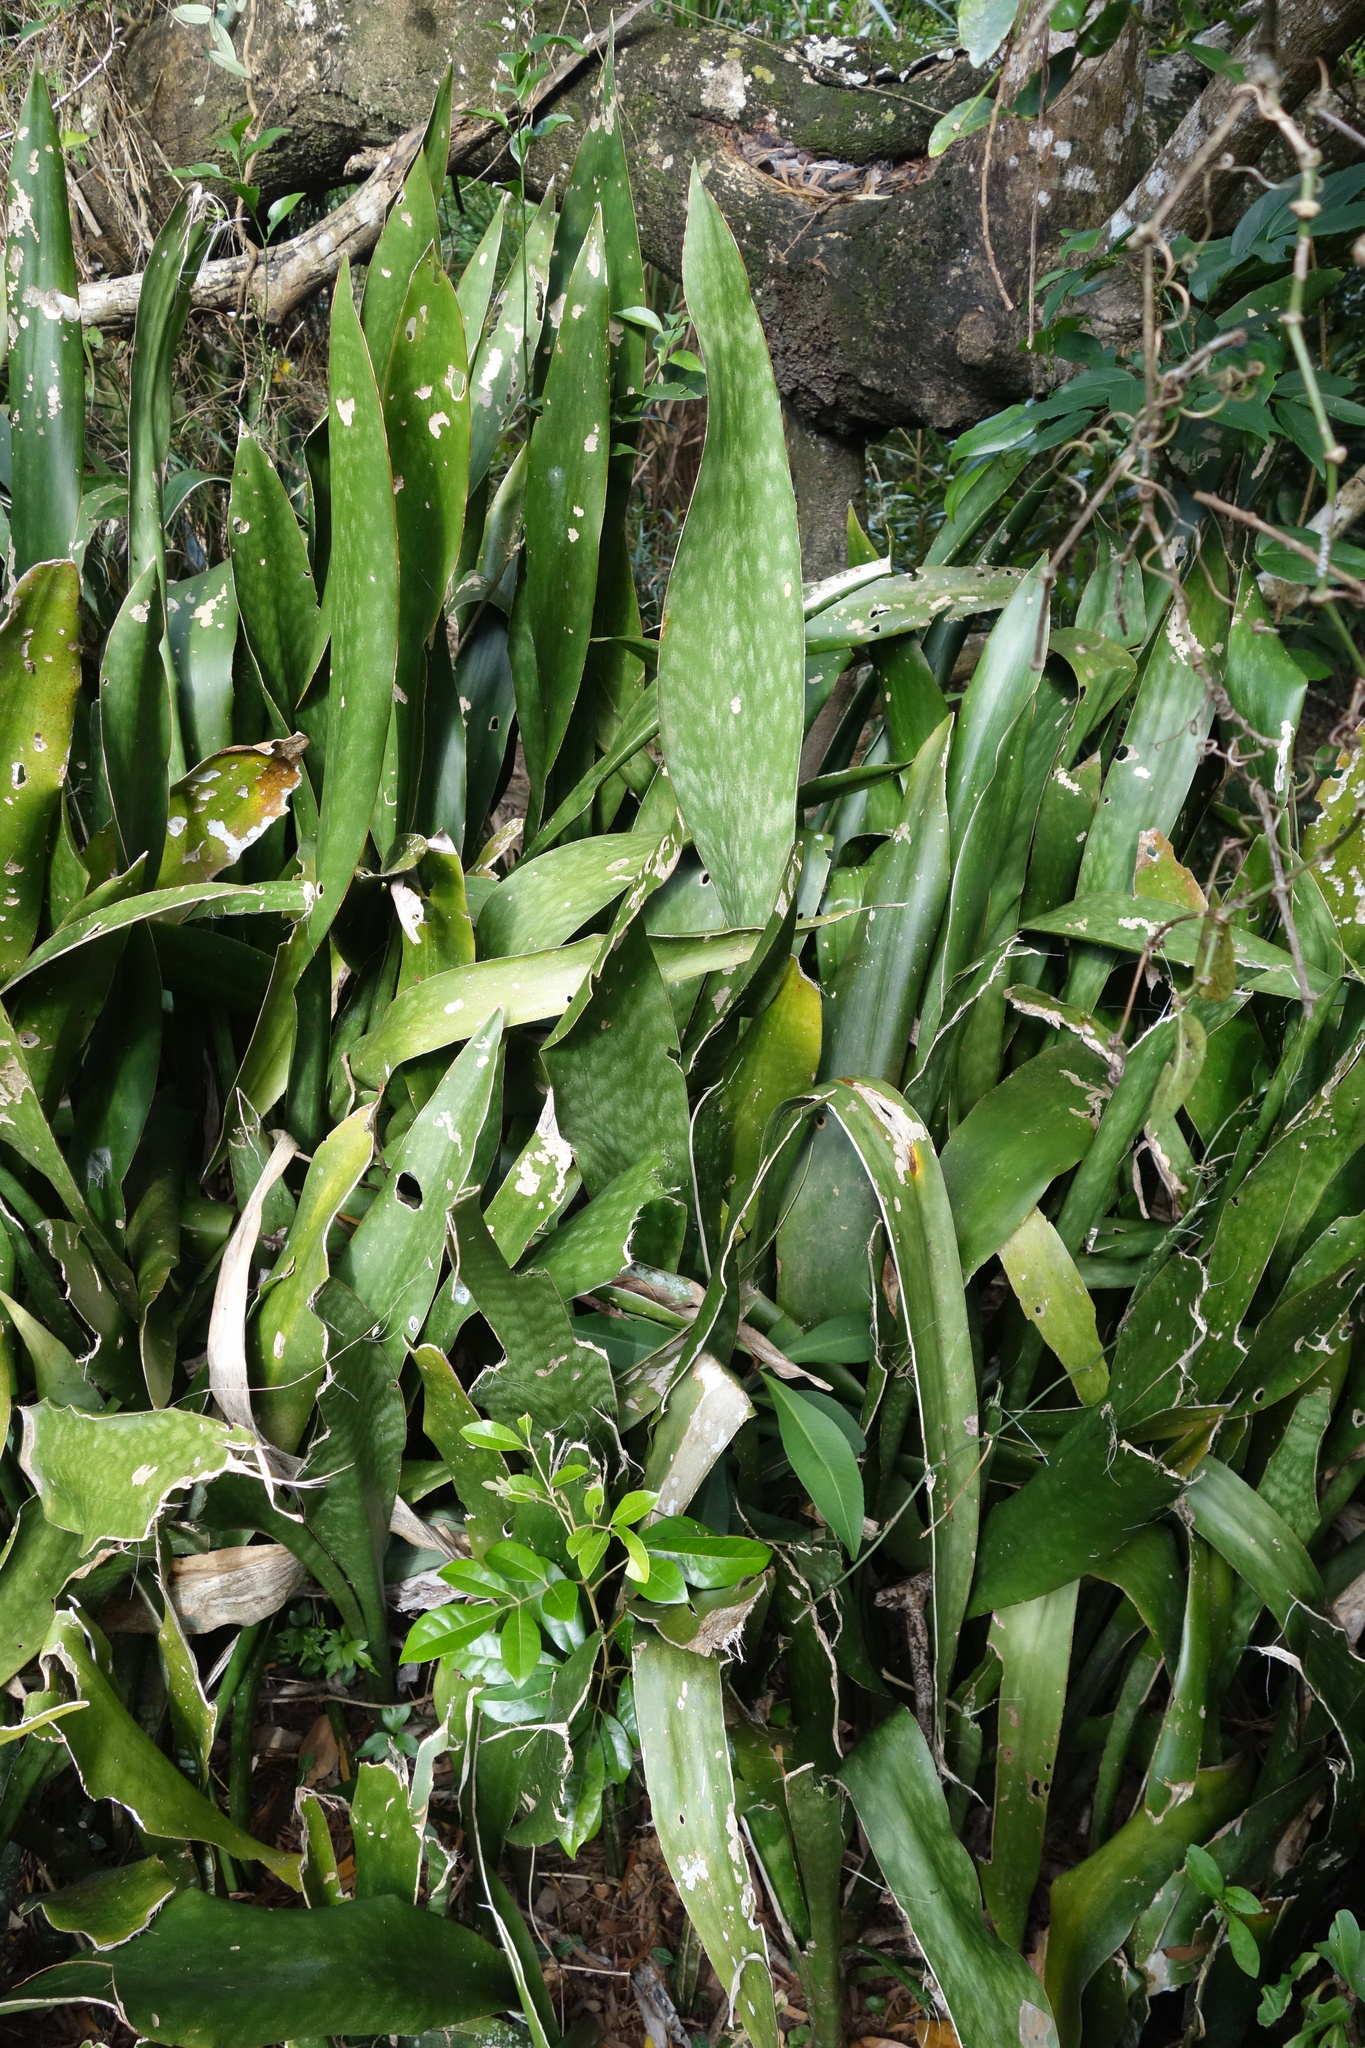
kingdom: Plantae
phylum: Tracheophyta
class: Liliopsida
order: Asparagales
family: Asparagaceae
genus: Dracaena
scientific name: Dracaena trifasciata
